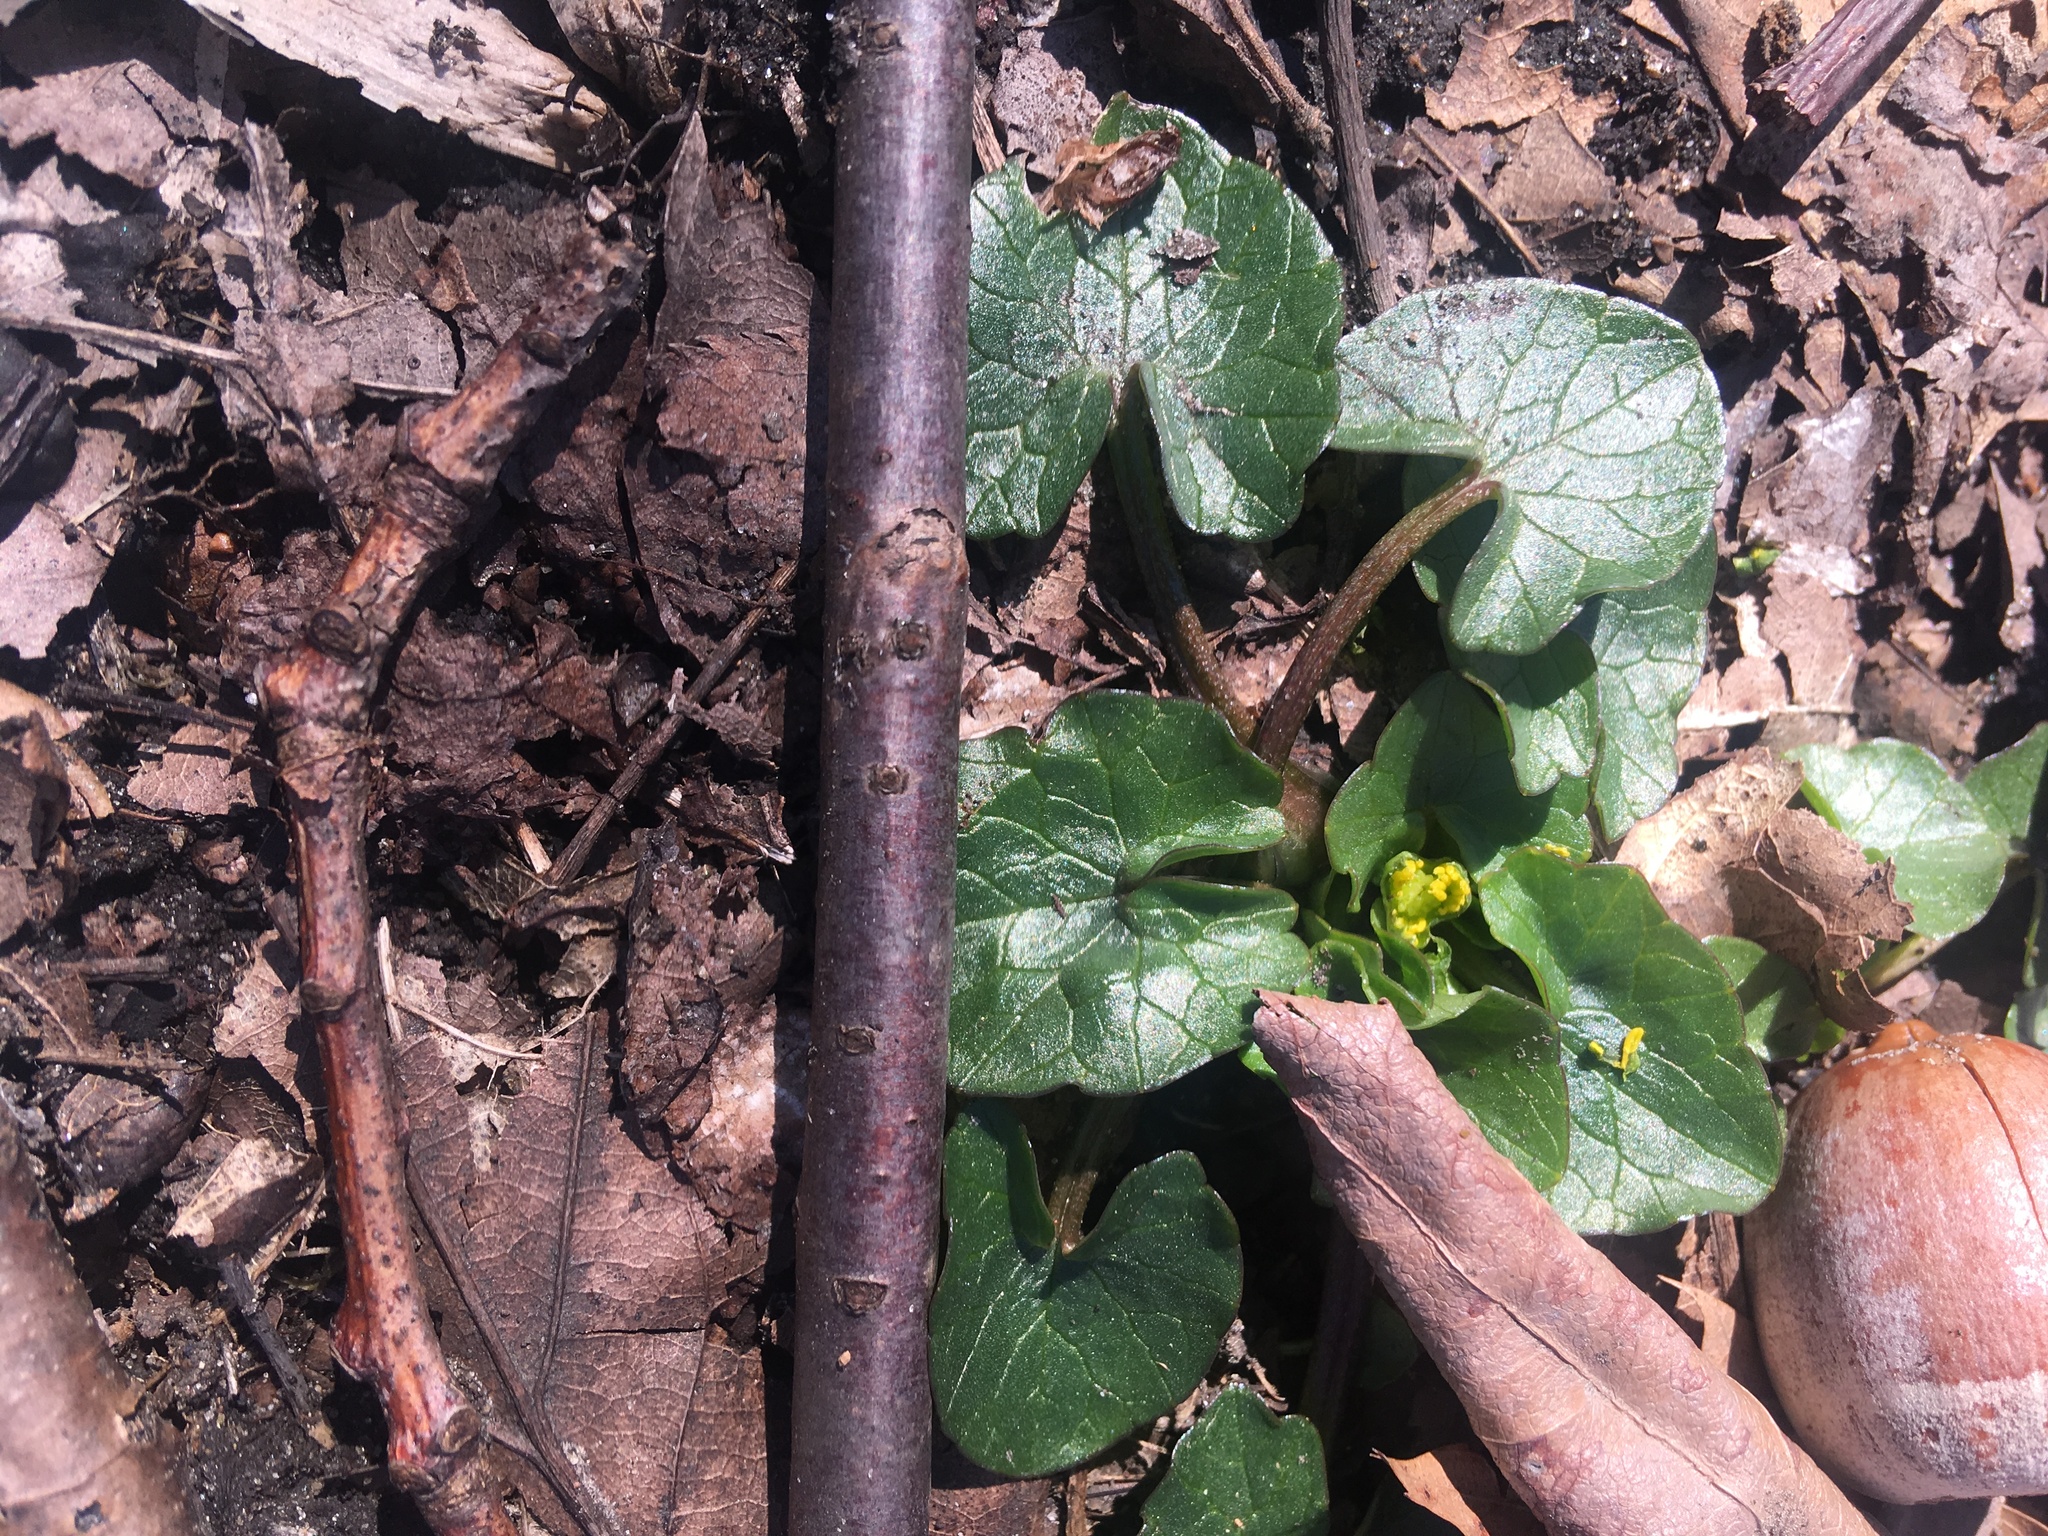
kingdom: Plantae
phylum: Tracheophyta
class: Magnoliopsida
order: Ranunculales
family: Ranunculaceae
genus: Ficaria
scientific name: Ficaria verna
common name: Lesser celandine
